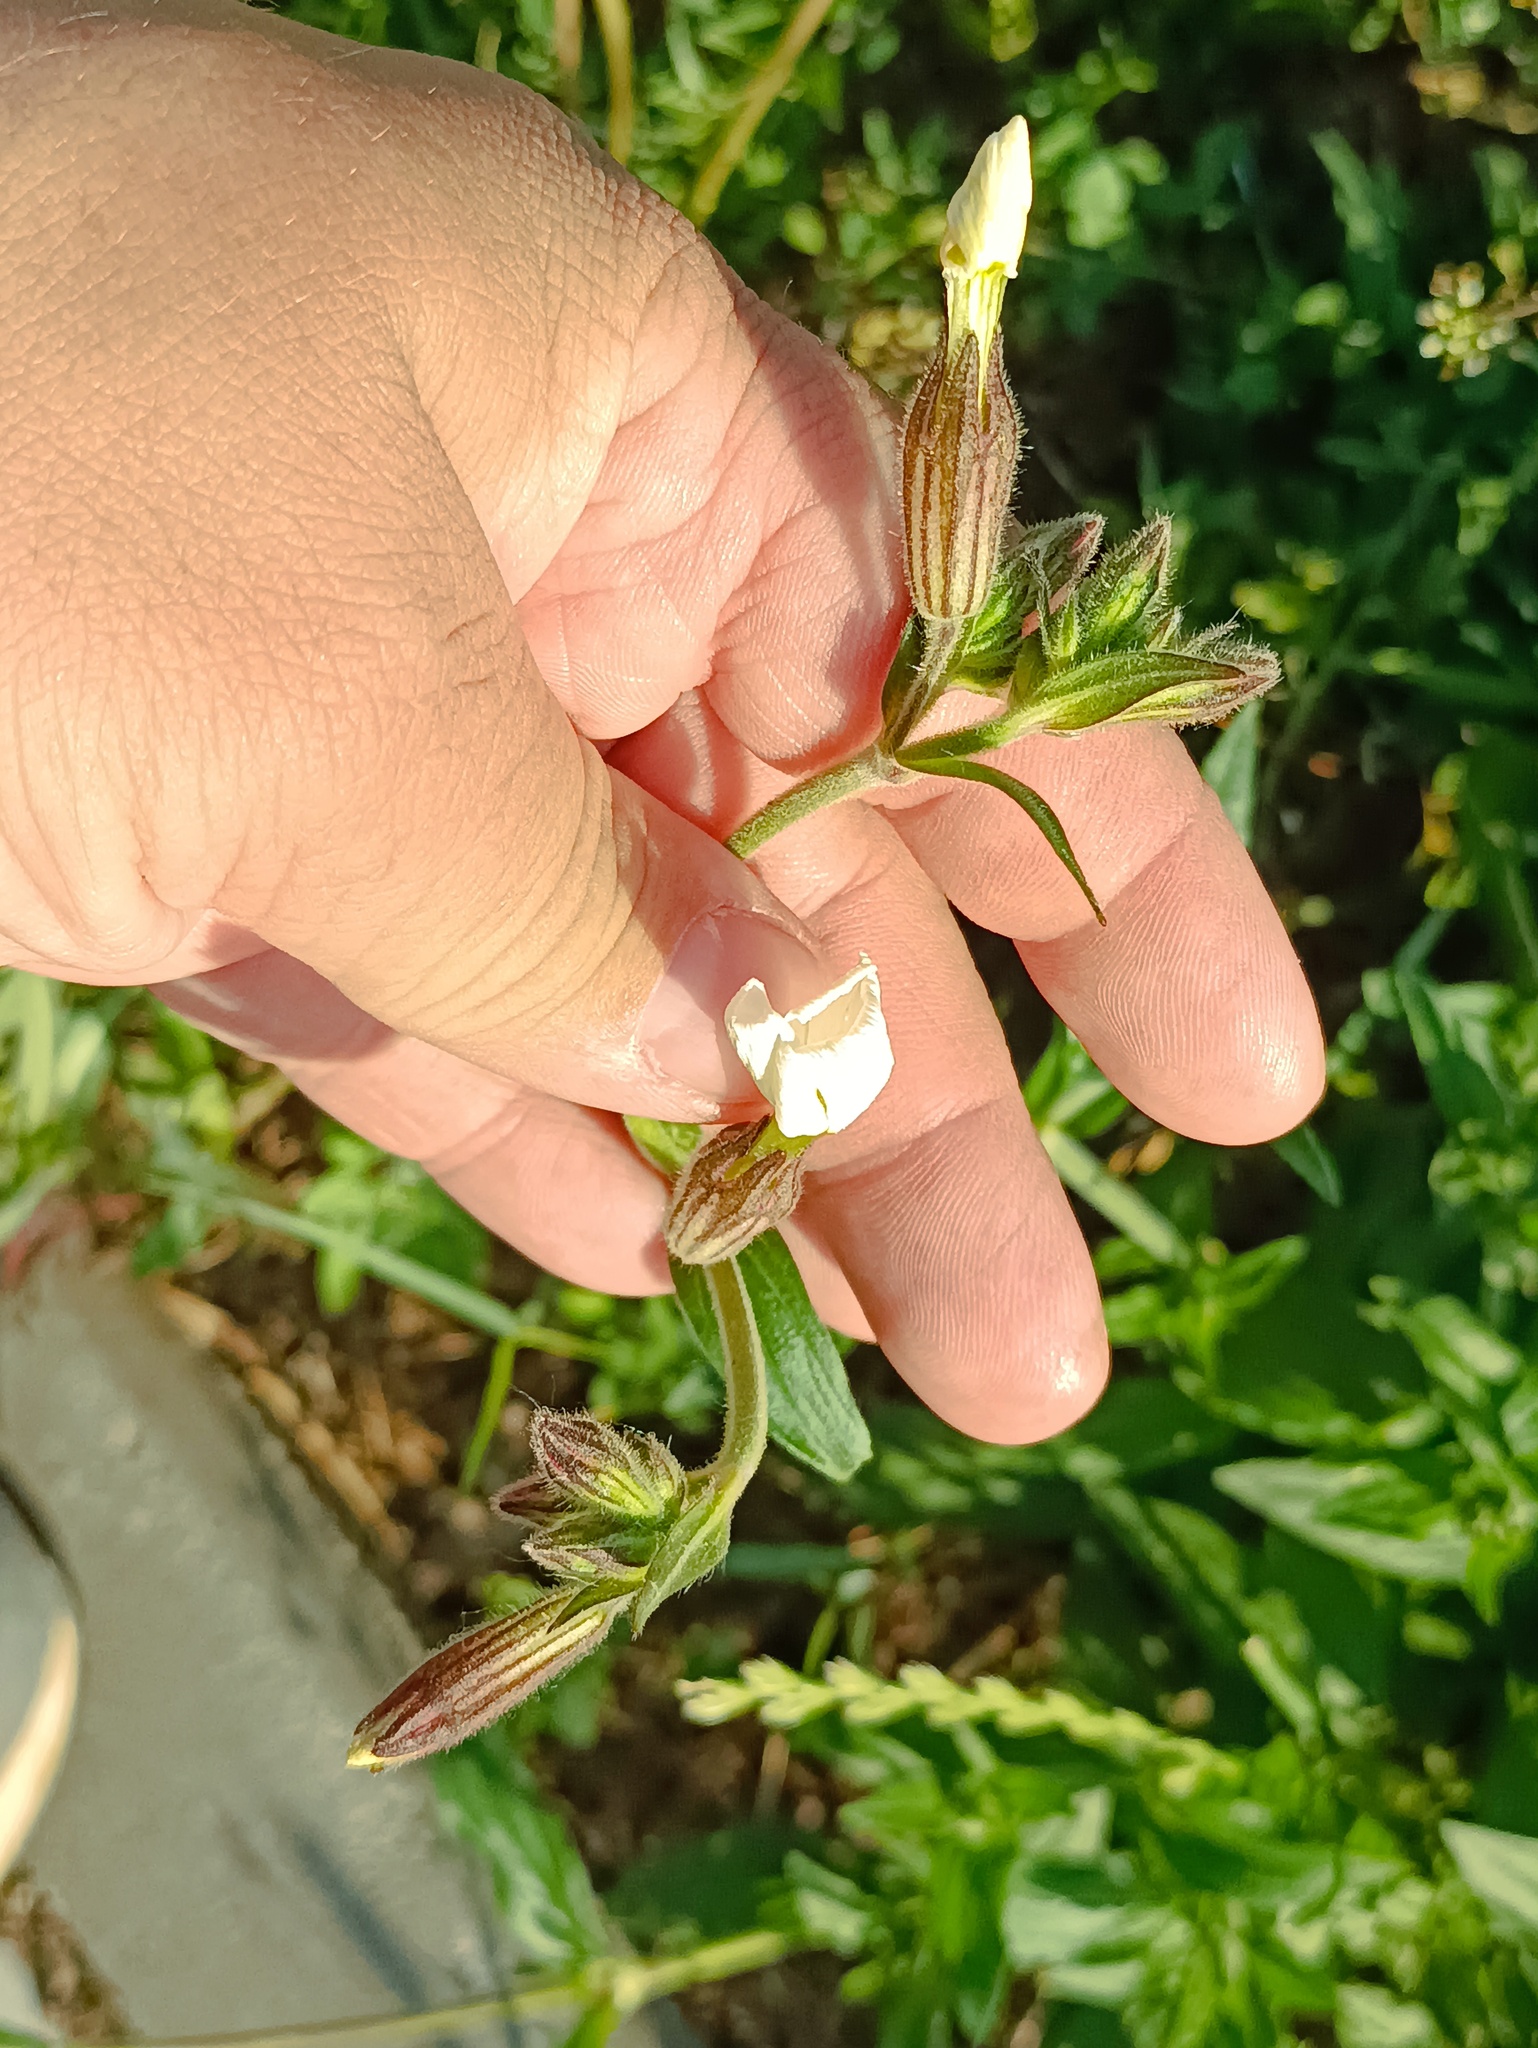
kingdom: Plantae
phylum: Tracheophyta
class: Magnoliopsida
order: Caryophyllales
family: Caryophyllaceae
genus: Silene
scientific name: Silene latifolia
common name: White campion
